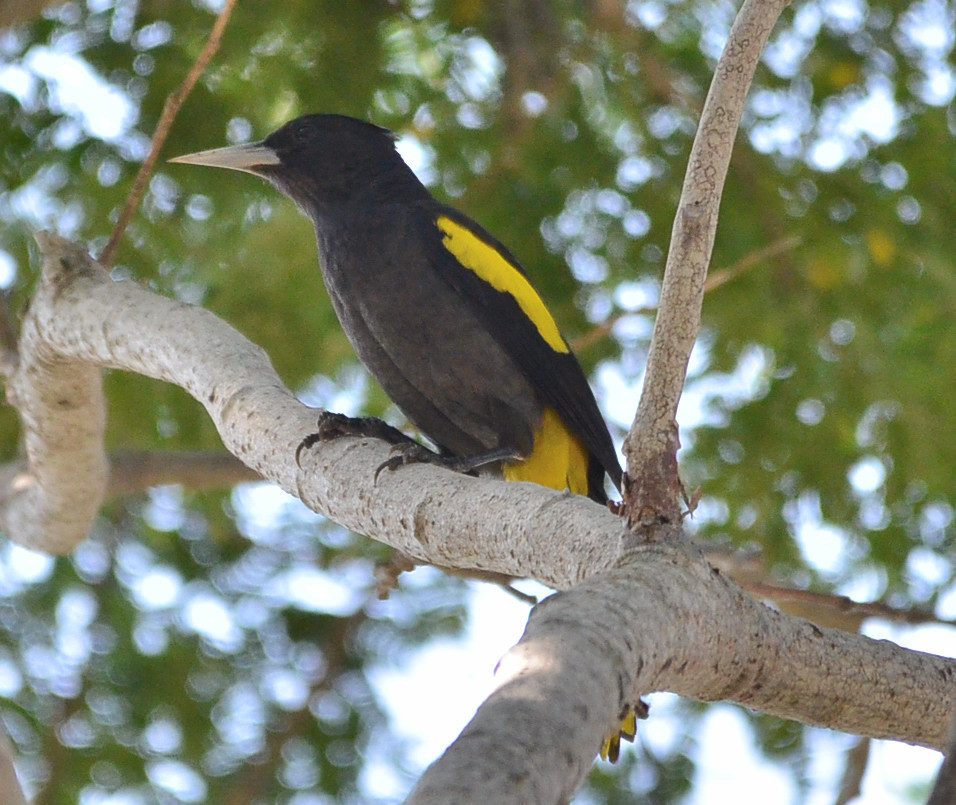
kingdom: Animalia
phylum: Chordata
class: Aves
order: Passeriformes
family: Icteridae
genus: Cacicus
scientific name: Cacicus melanicterus
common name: Yellow-winged cacique
